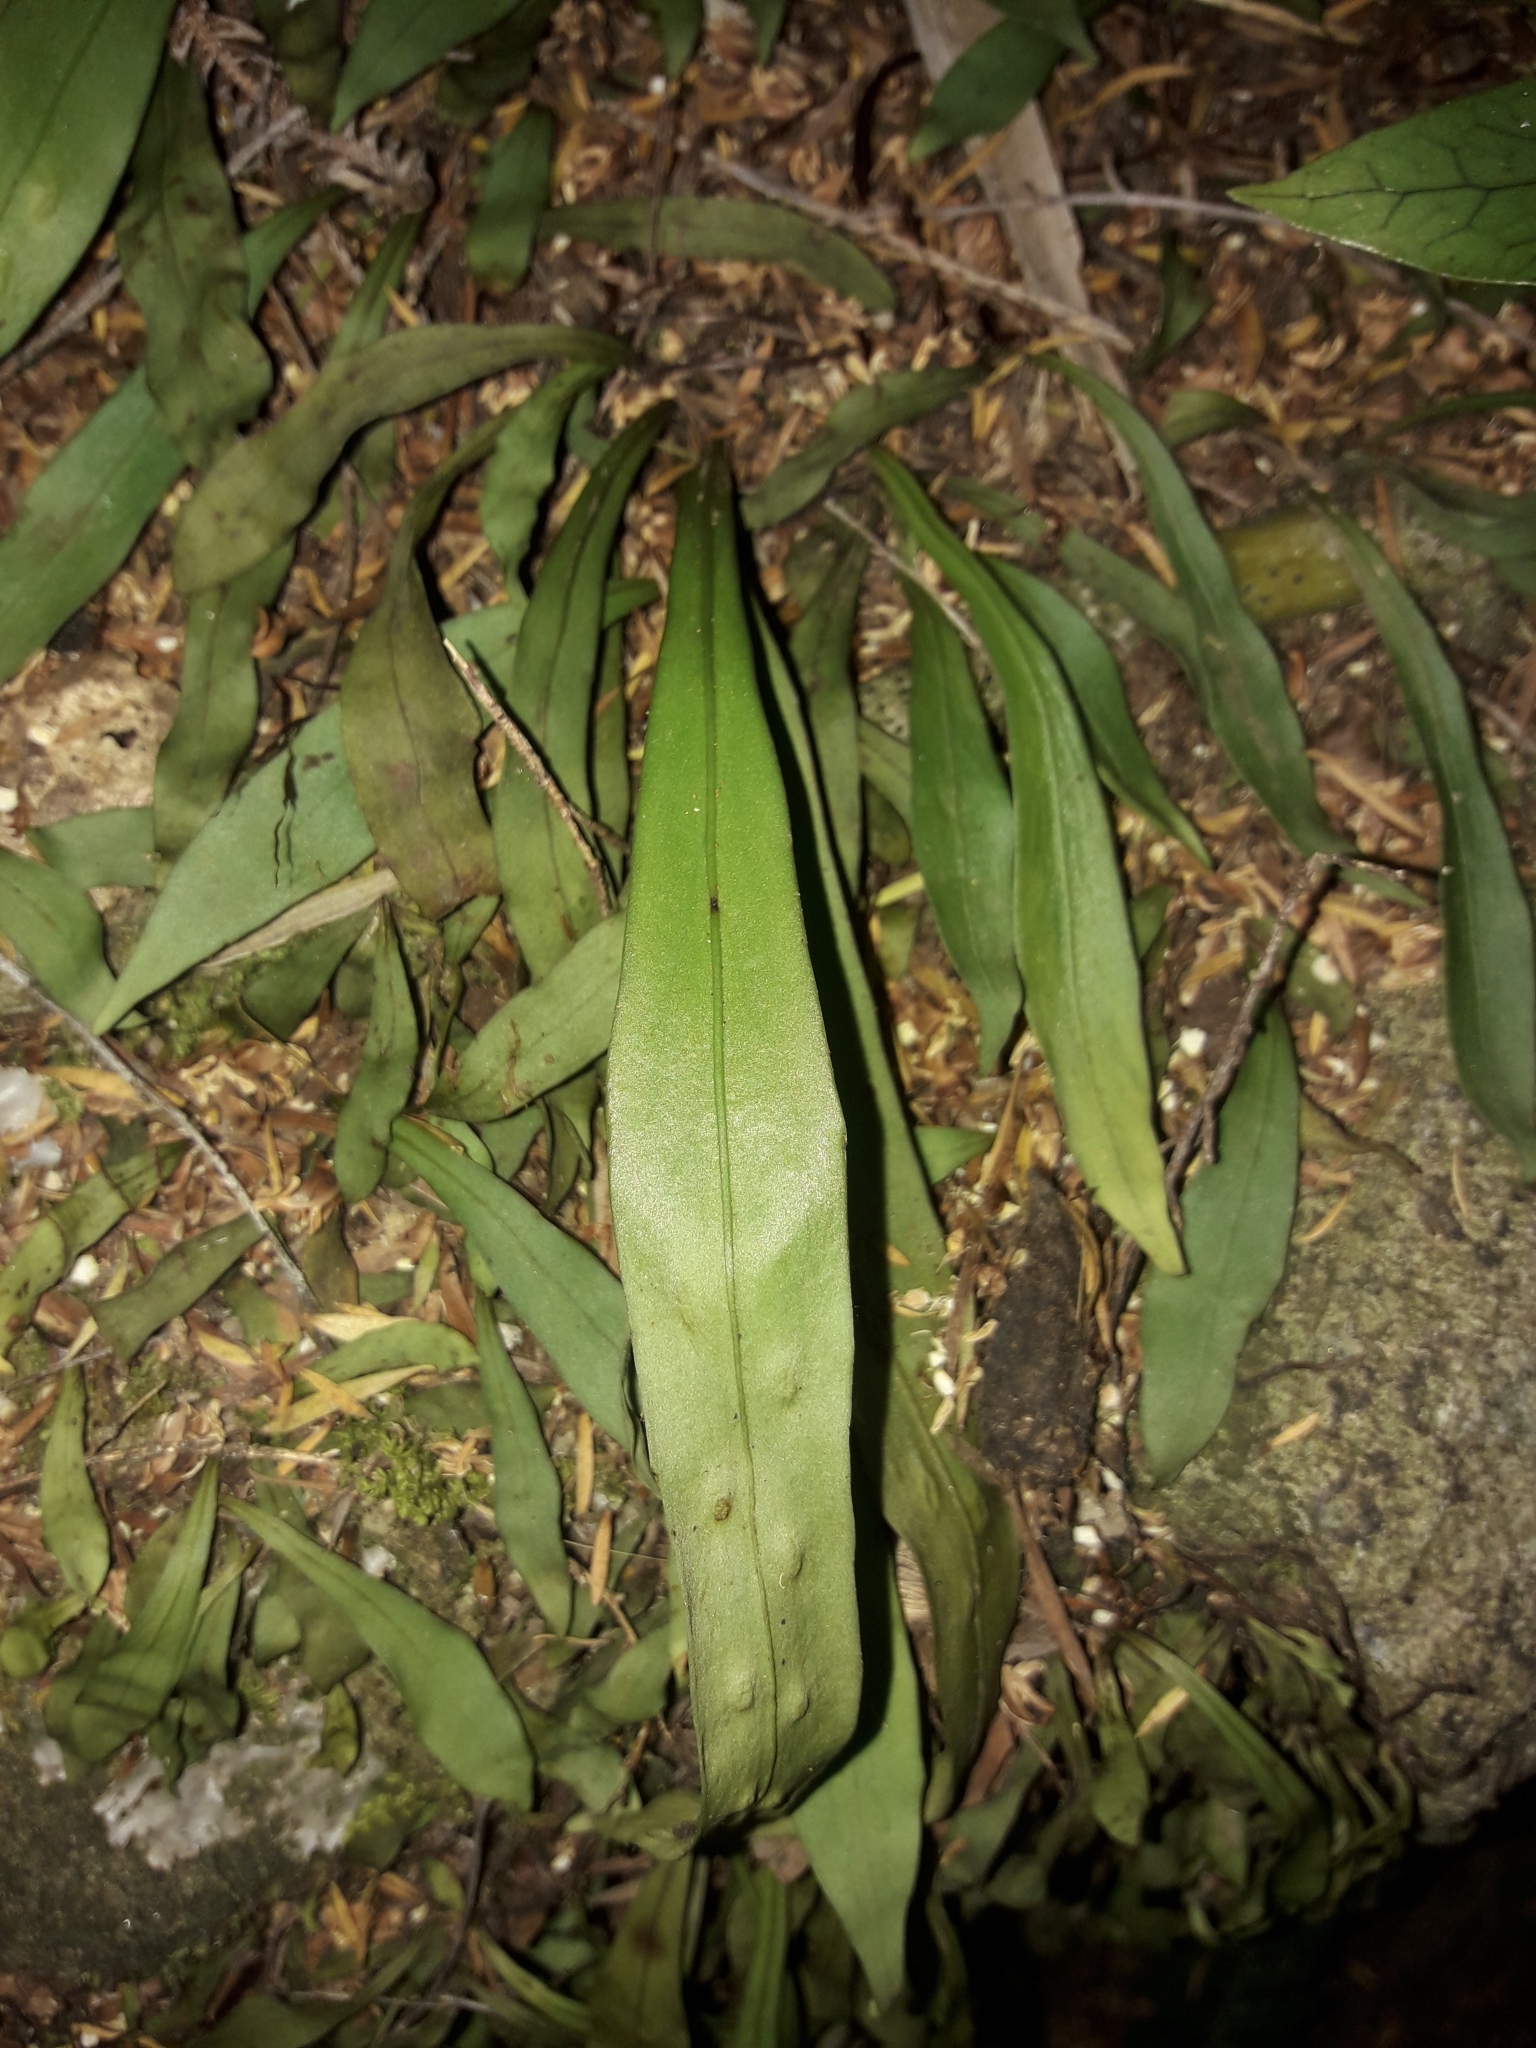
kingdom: Plantae
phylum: Tracheophyta
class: Polypodiopsida
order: Polypodiales
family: Polypodiaceae
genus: Loxogramme
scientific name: Loxogramme dictyopteris
